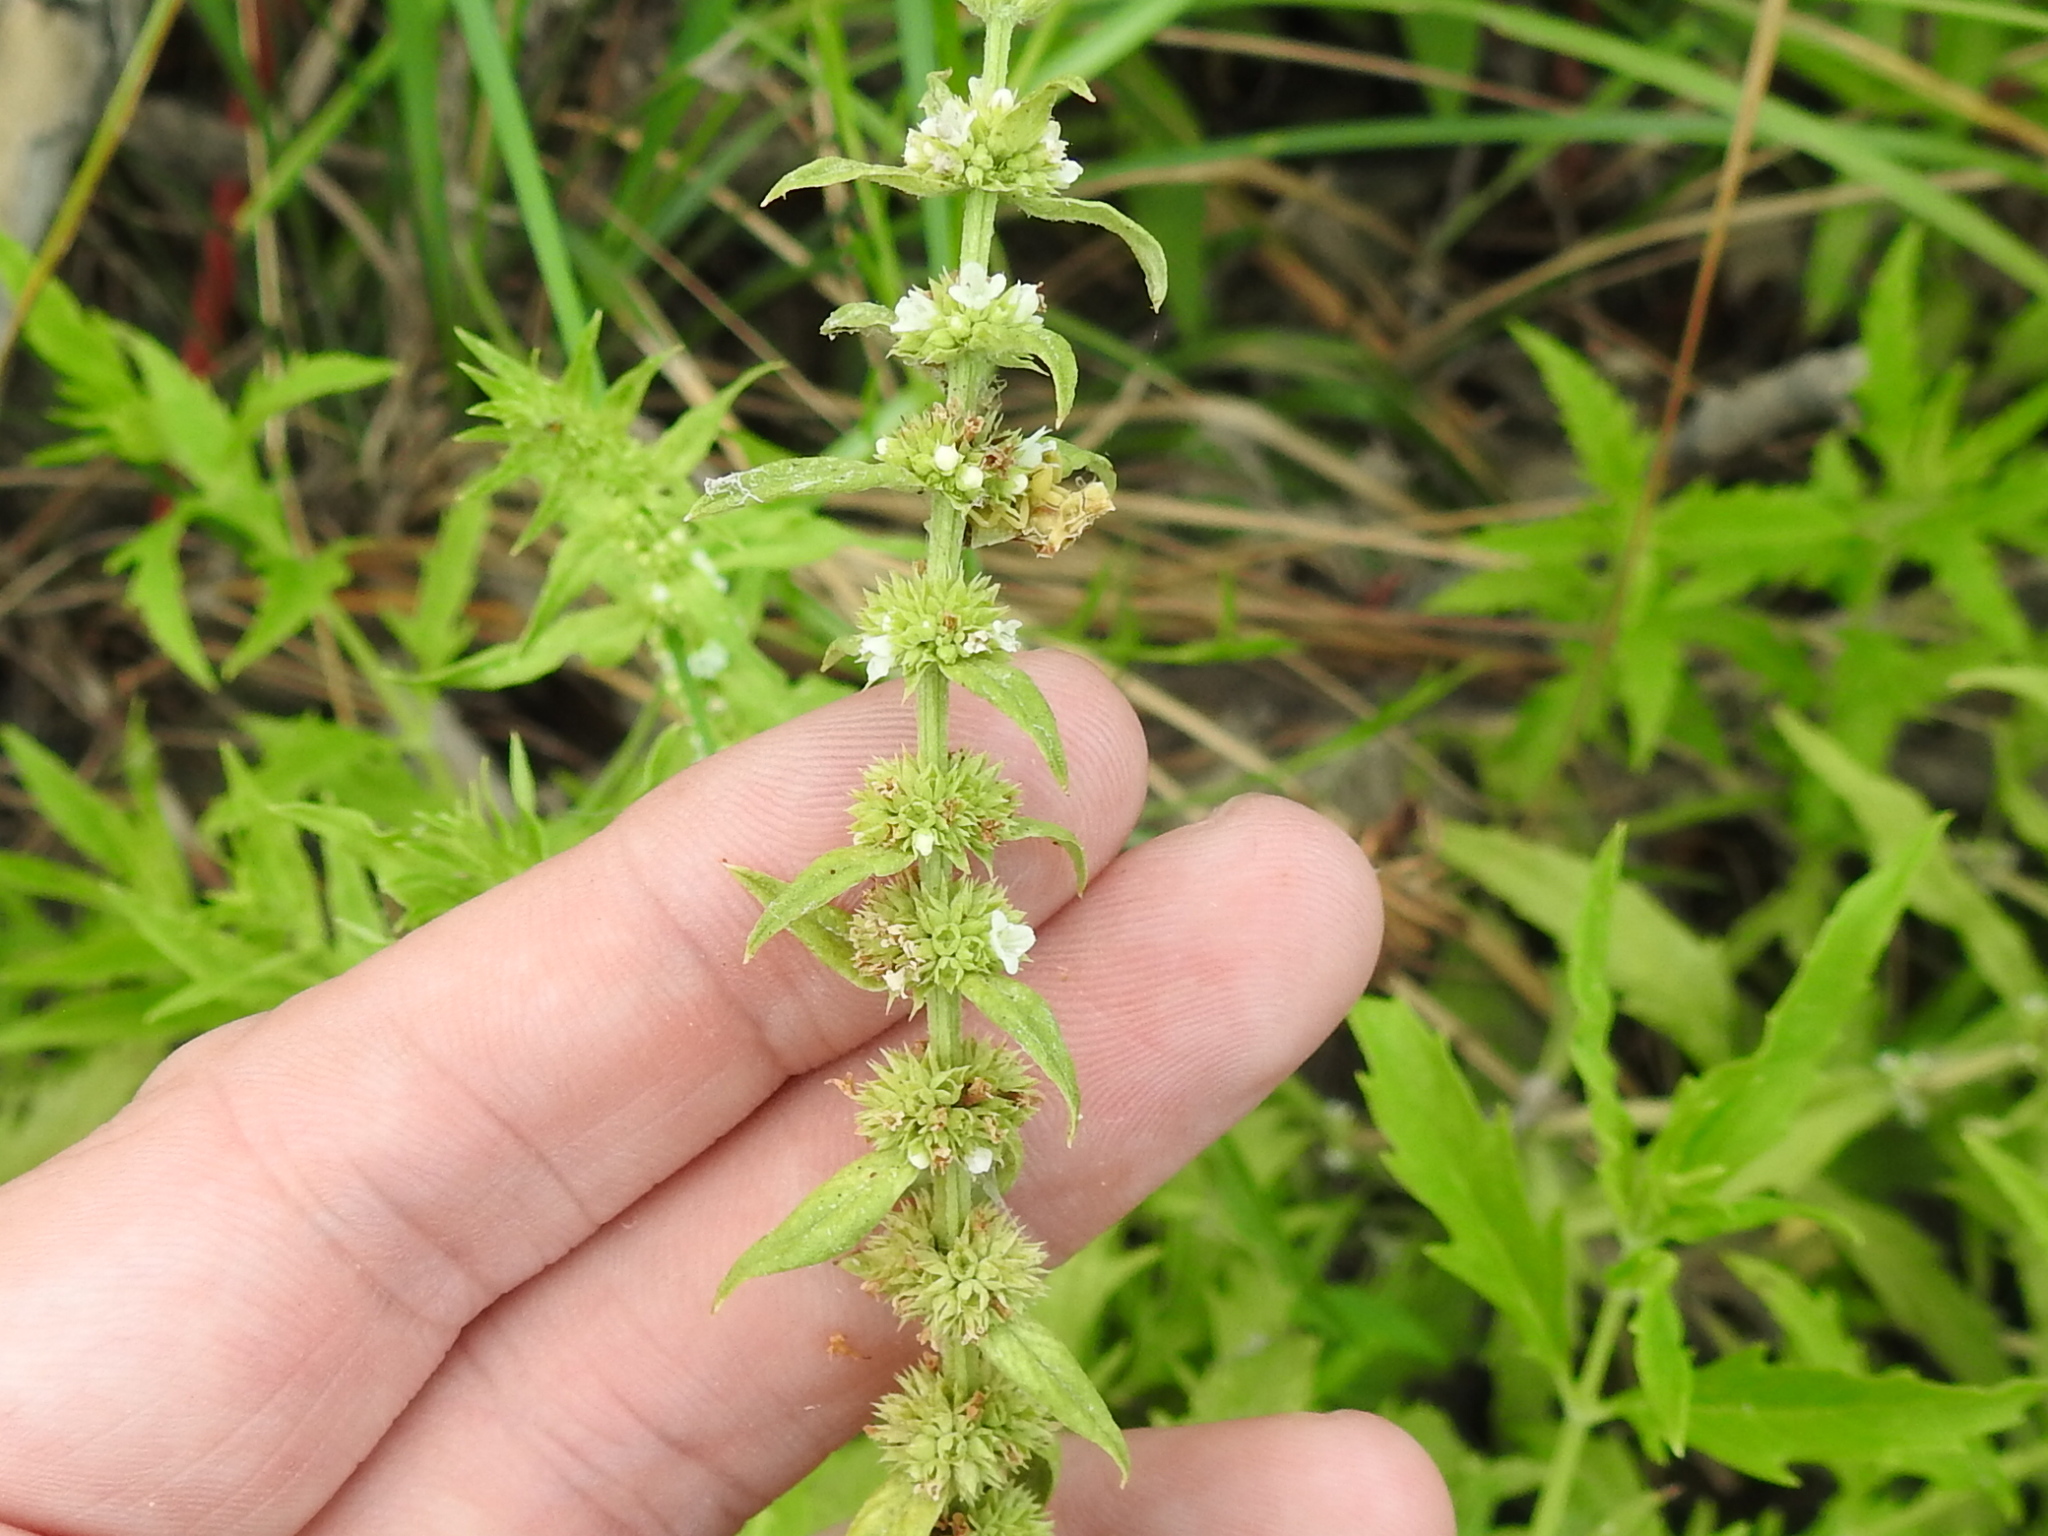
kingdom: Plantae
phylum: Tracheophyta
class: Magnoliopsida
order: Lamiales
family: Lamiaceae
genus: Lycopus
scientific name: Lycopus americanus
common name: American bugleweed
